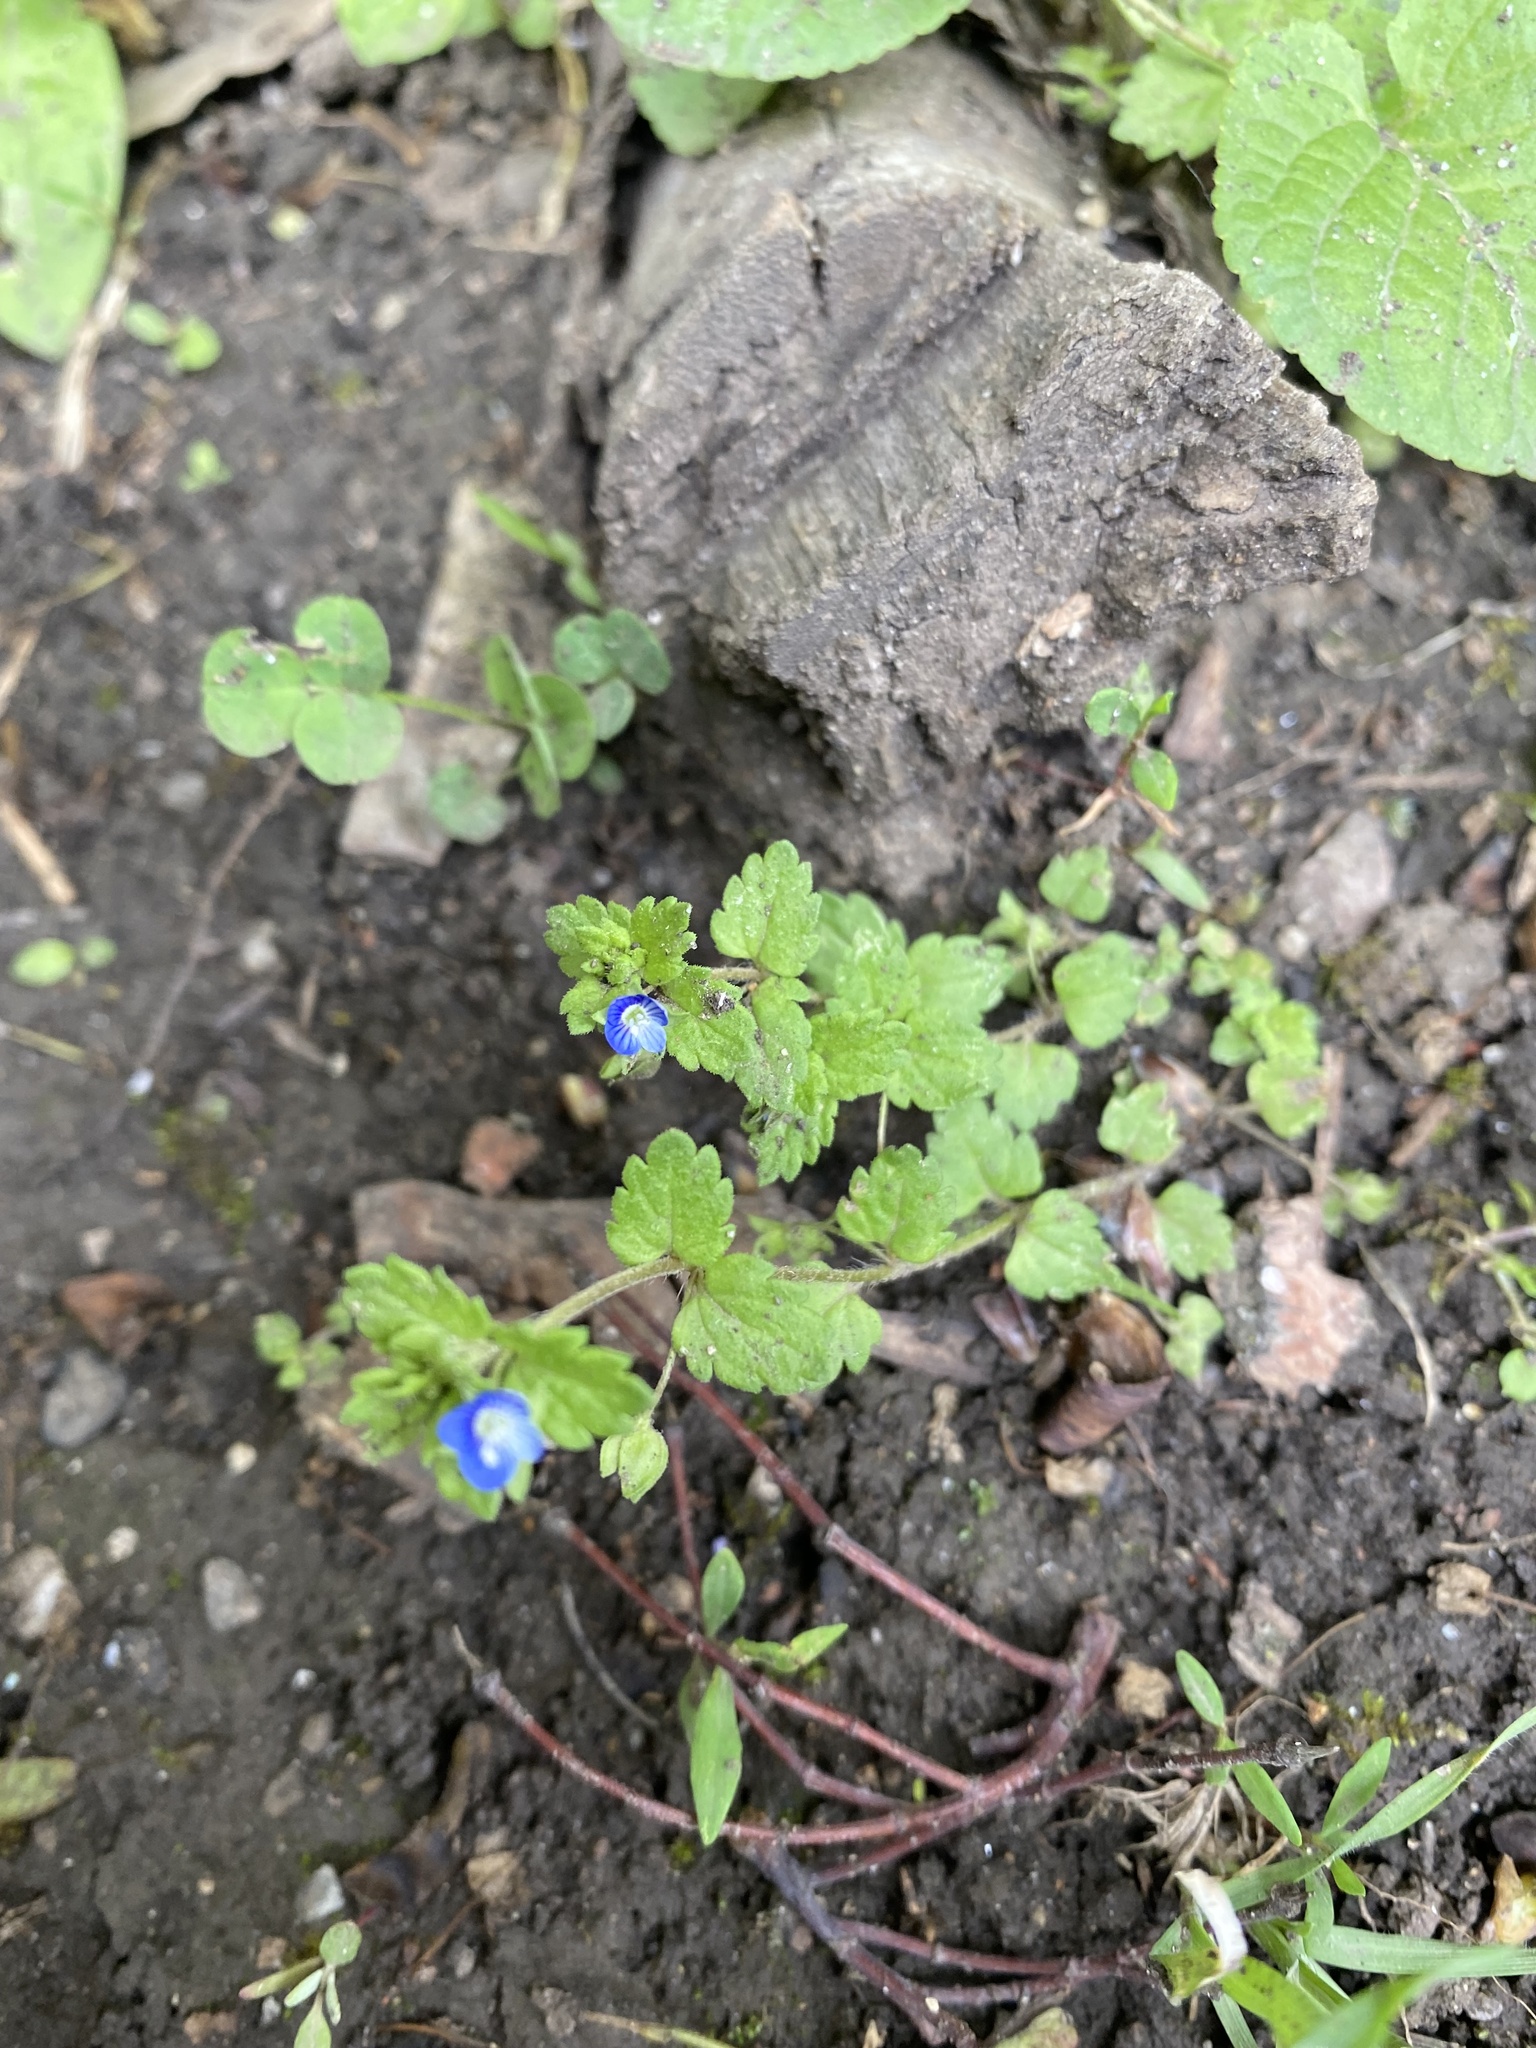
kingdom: Plantae
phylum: Tracheophyta
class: Magnoliopsida
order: Lamiales
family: Plantaginaceae
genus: Veronica
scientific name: Veronica polita
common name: Grey field-speedwell
